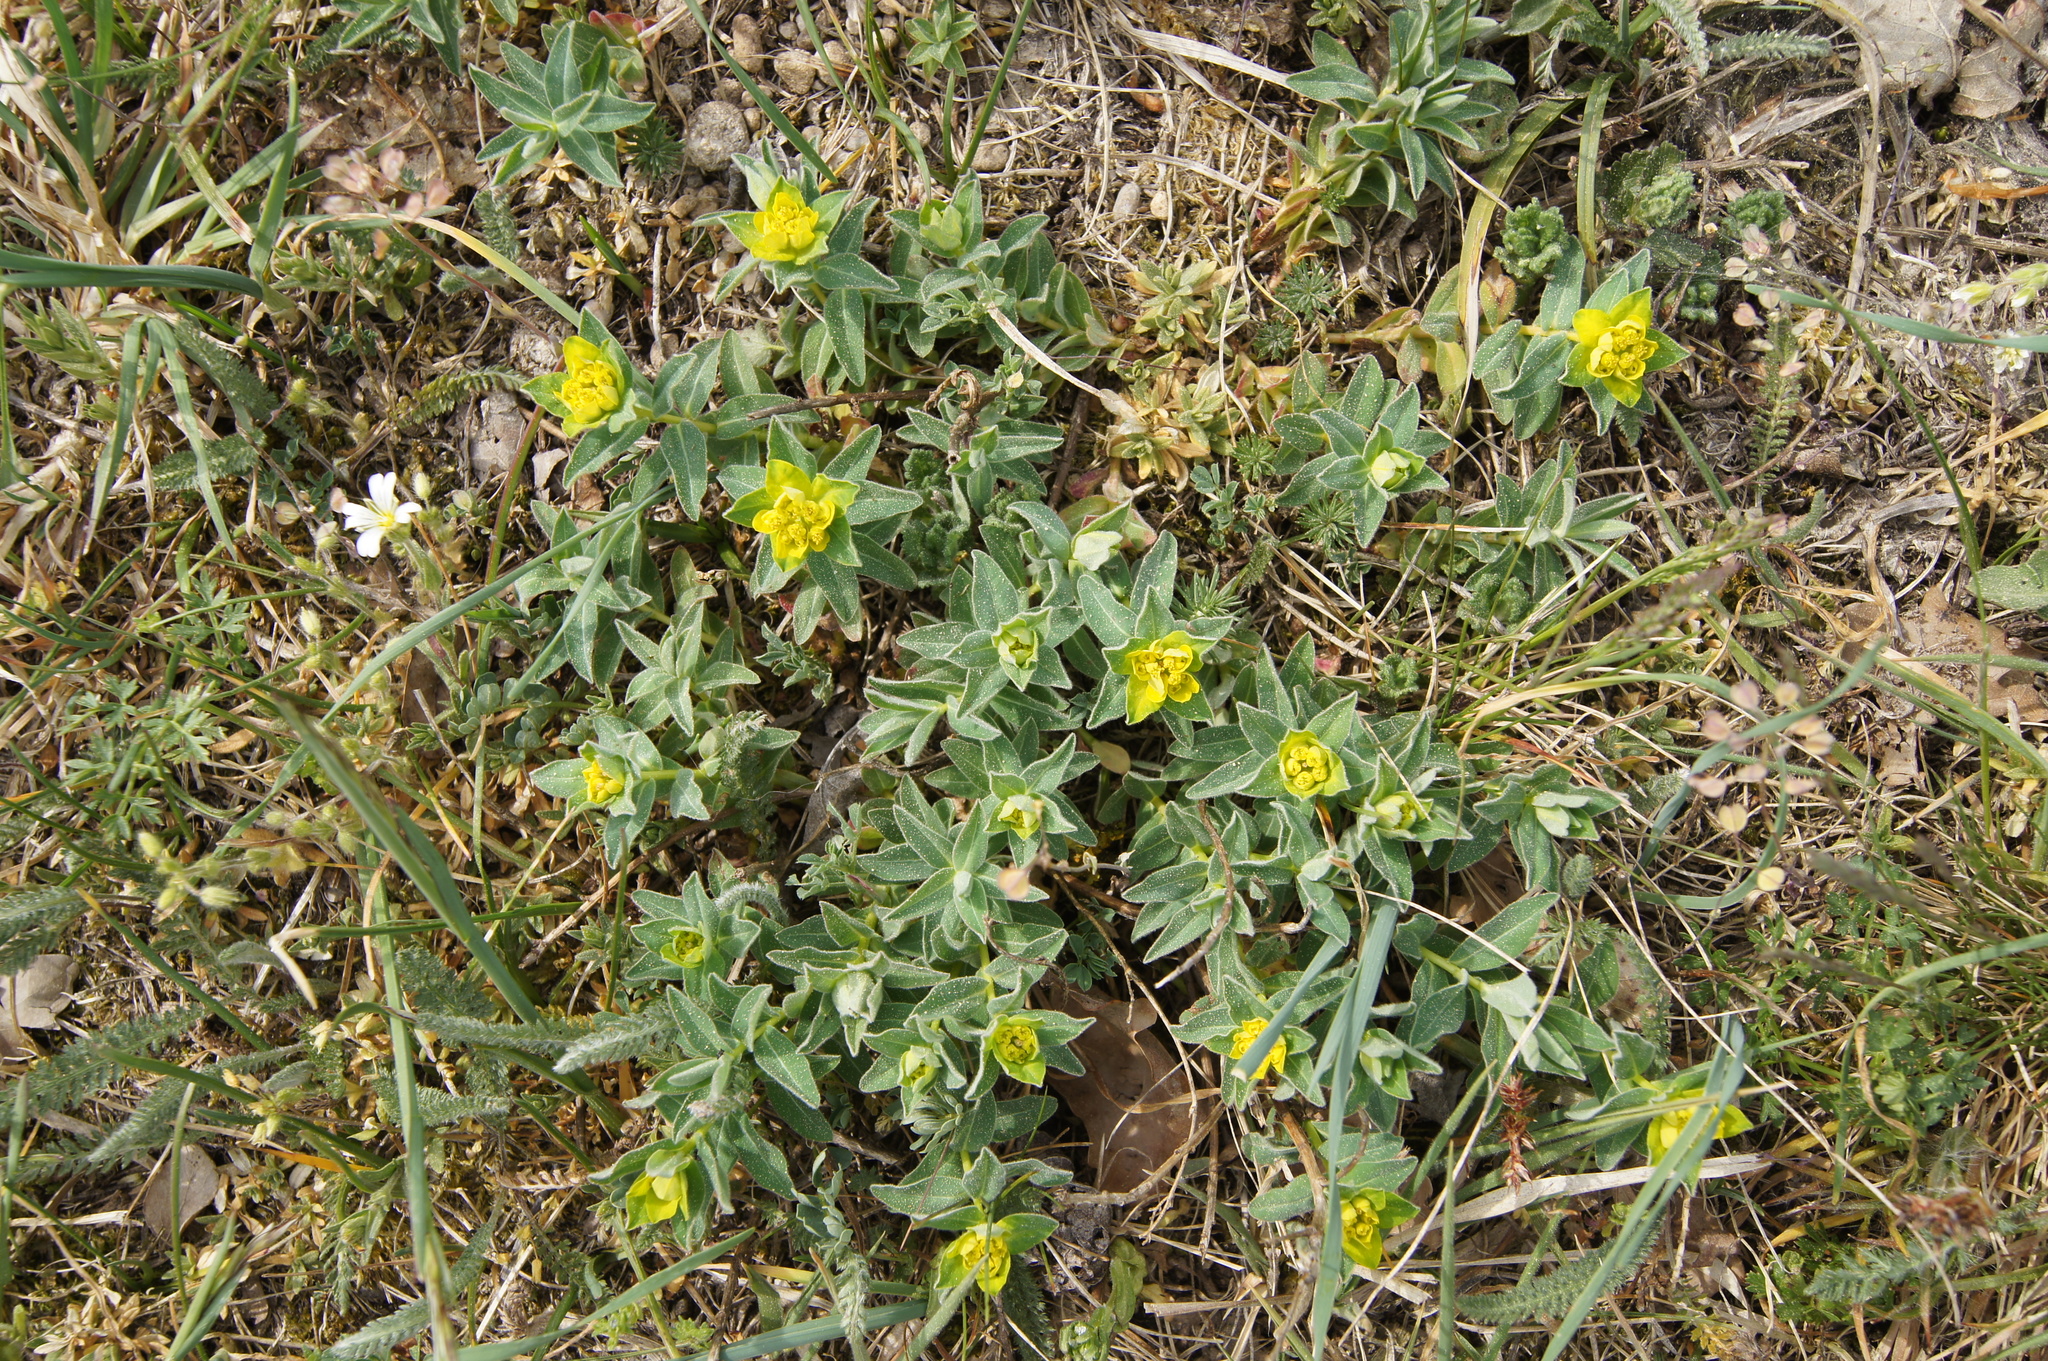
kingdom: Plantae
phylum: Tracheophyta
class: Magnoliopsida
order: Malpighiales
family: Euphorbiaceae
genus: Euphorbia
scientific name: Euphorbia verrucosa
